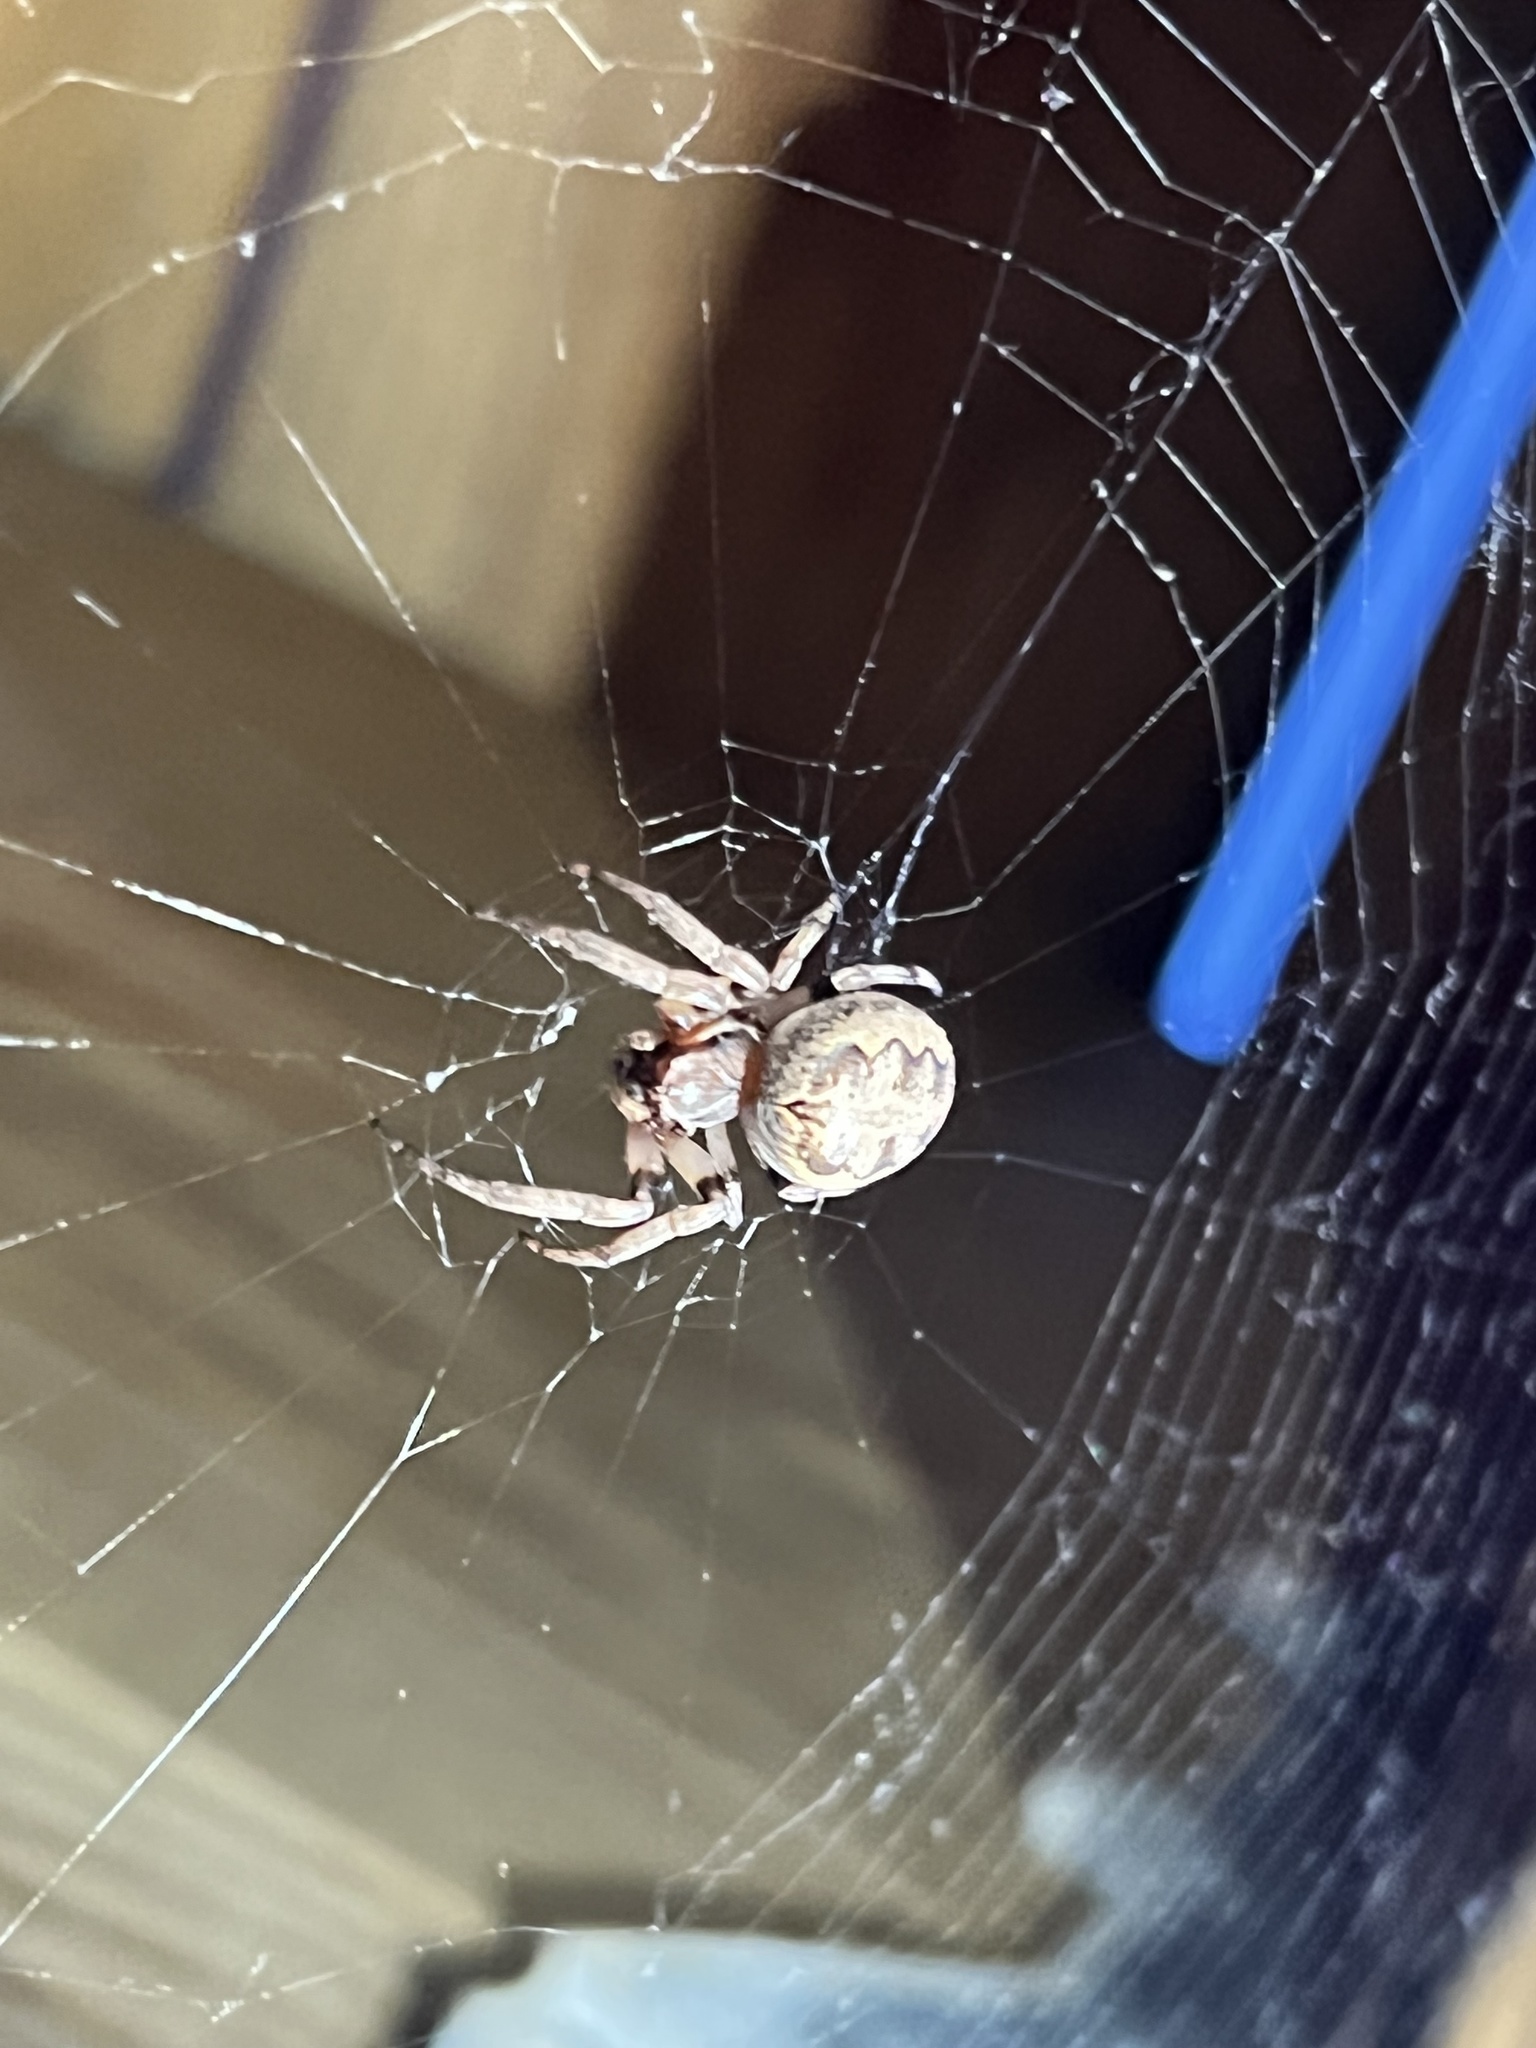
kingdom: Animalia
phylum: Arthropoda
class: Arachnida
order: Araneae
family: Araneidae
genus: Larinioides
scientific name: Larinioides cornutus
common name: Furrow orbweaver
